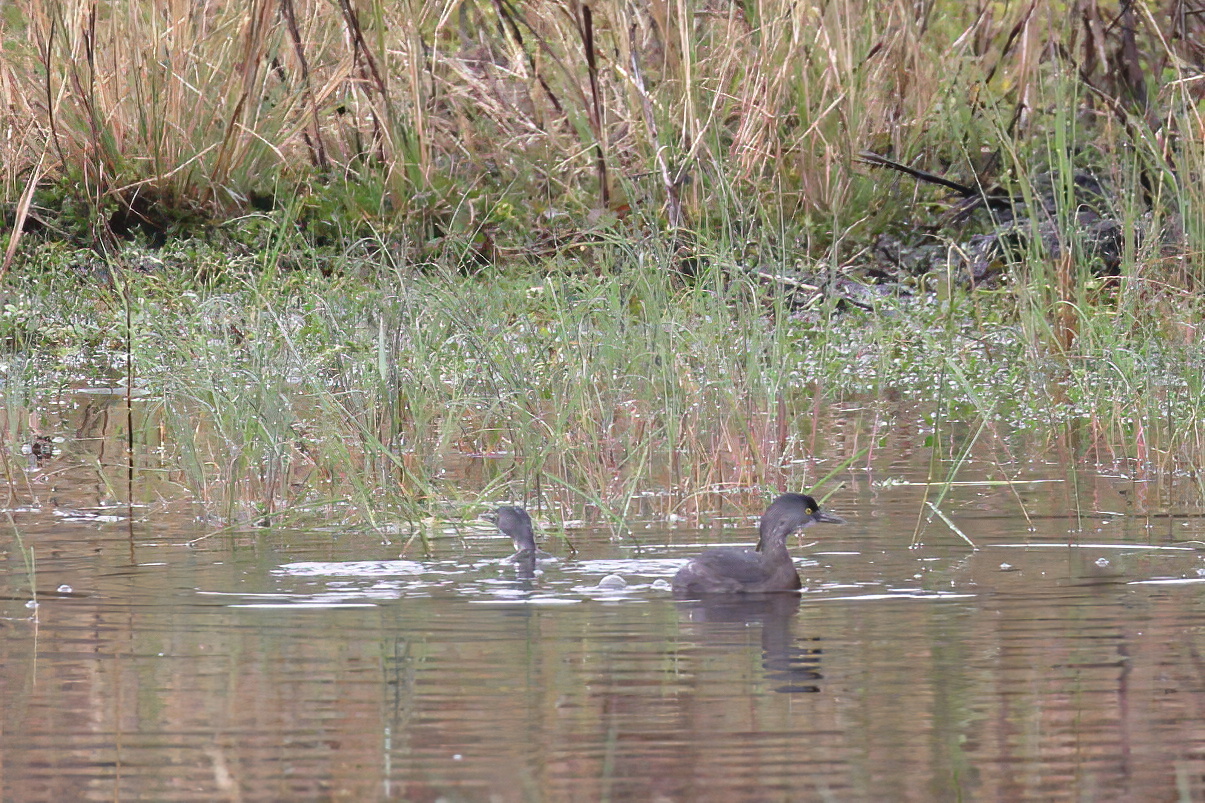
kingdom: Animalia
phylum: Chordata
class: Aves
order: Podicipediformes
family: Podicipedidae
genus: Tachybaptus
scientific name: Tachybaptus dominicus
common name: Least grebe
